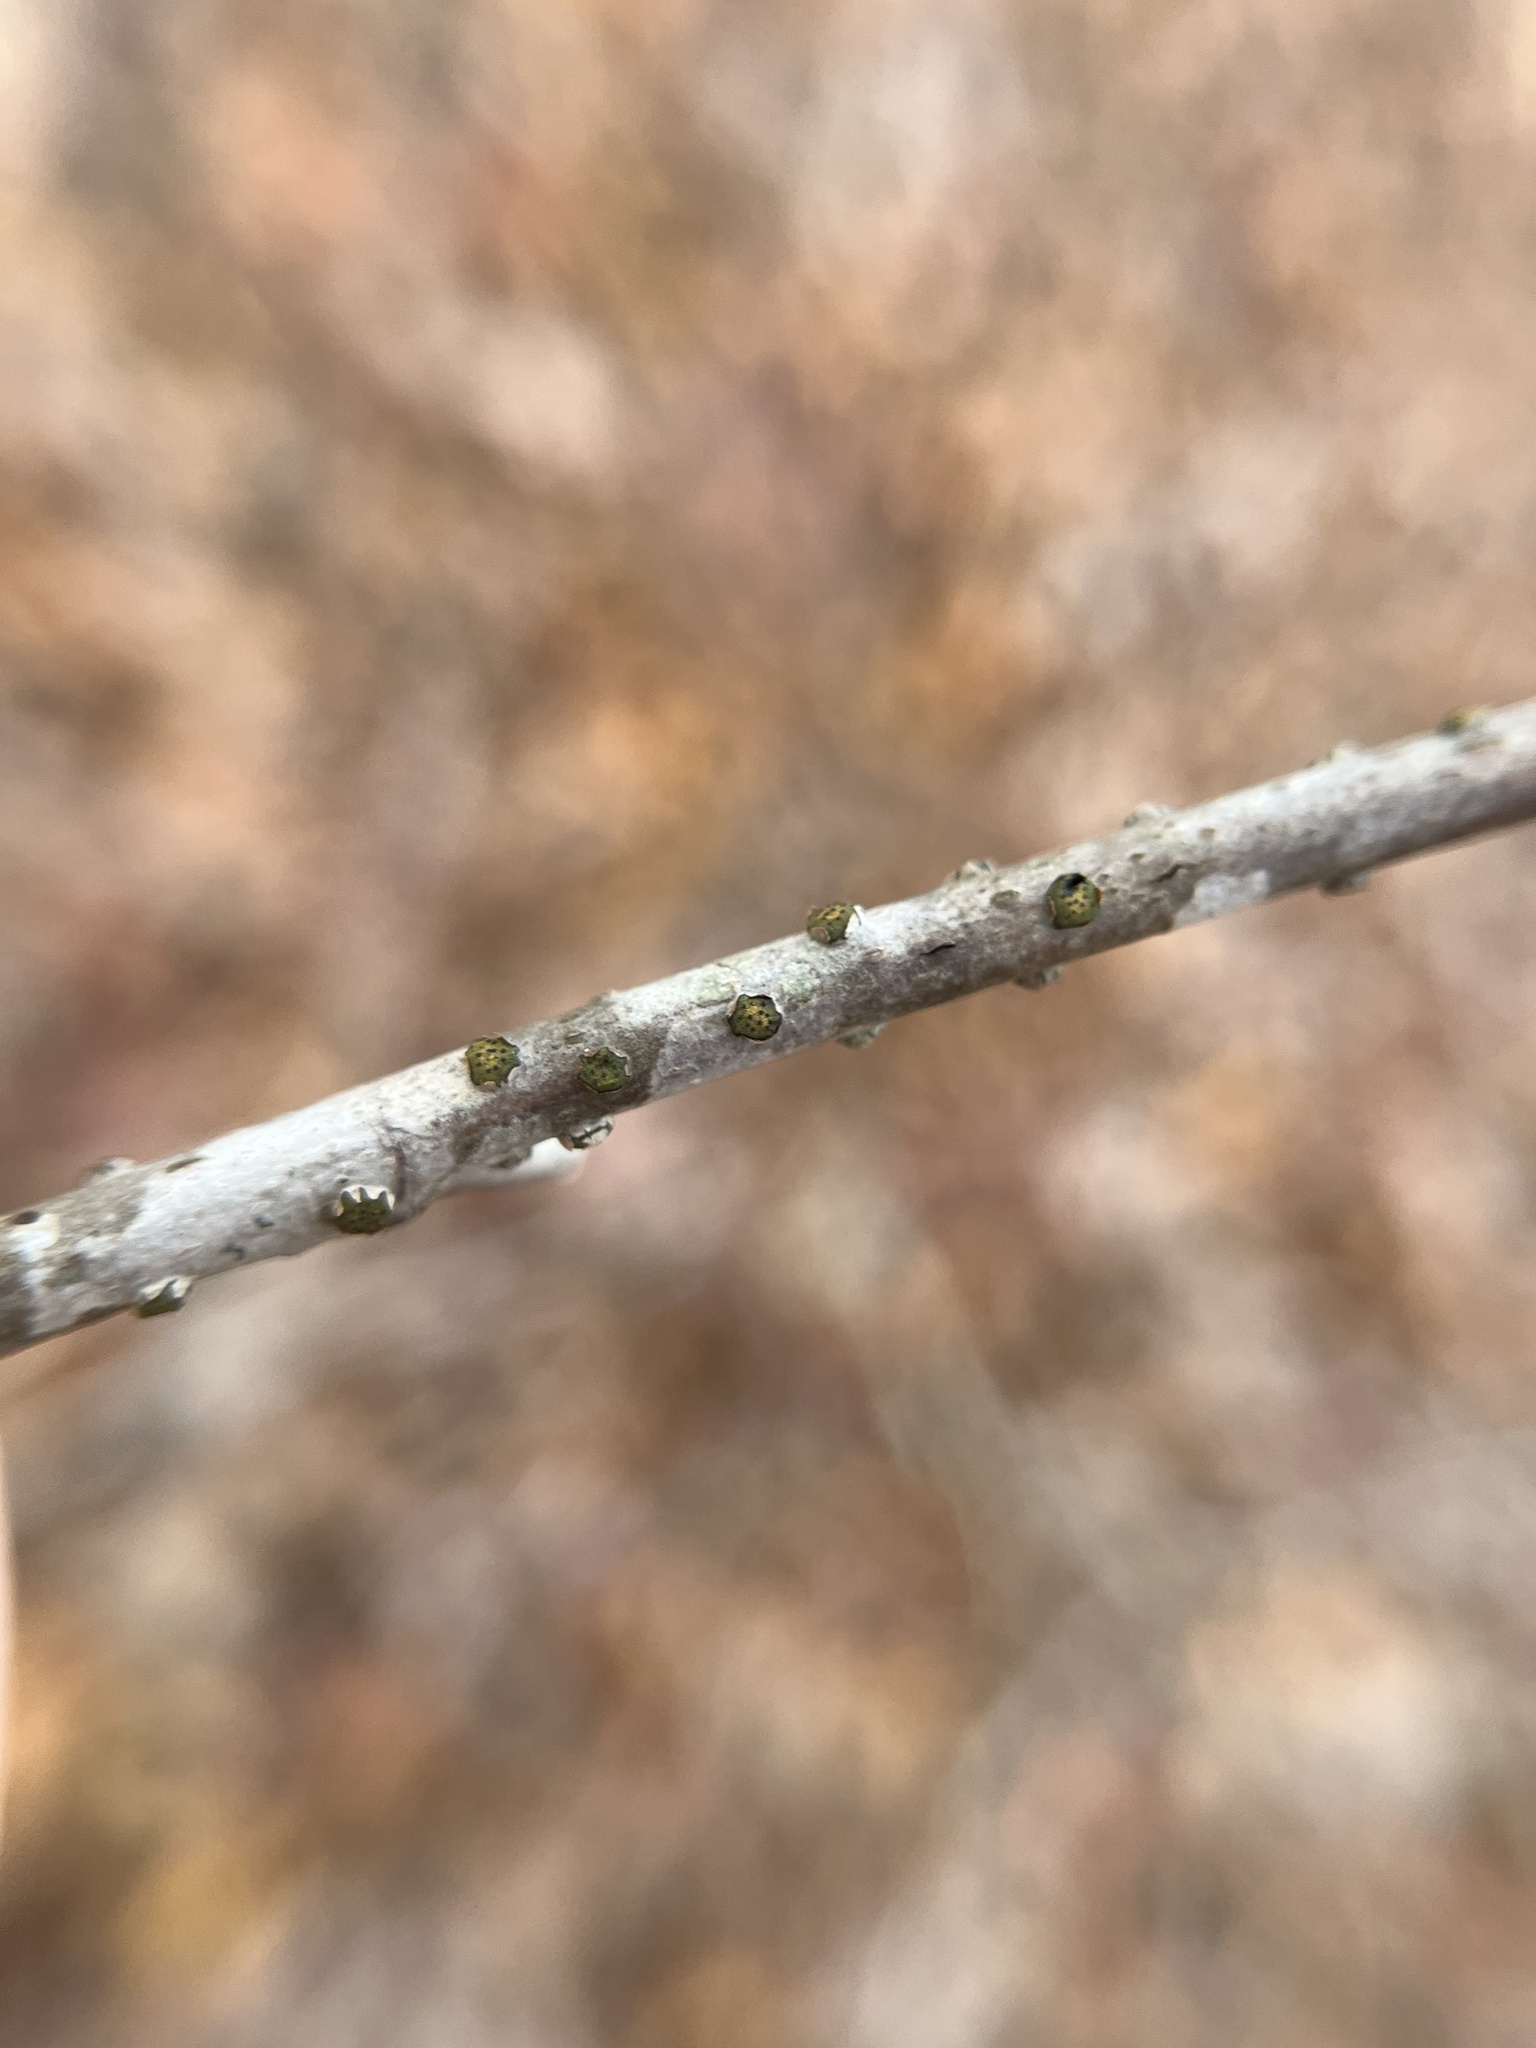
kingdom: Fungi
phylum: Ascomycota
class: Sordariomycetes
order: Xylariales
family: Diatrypaceae
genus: Diatrype
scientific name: Diatrype virescens
